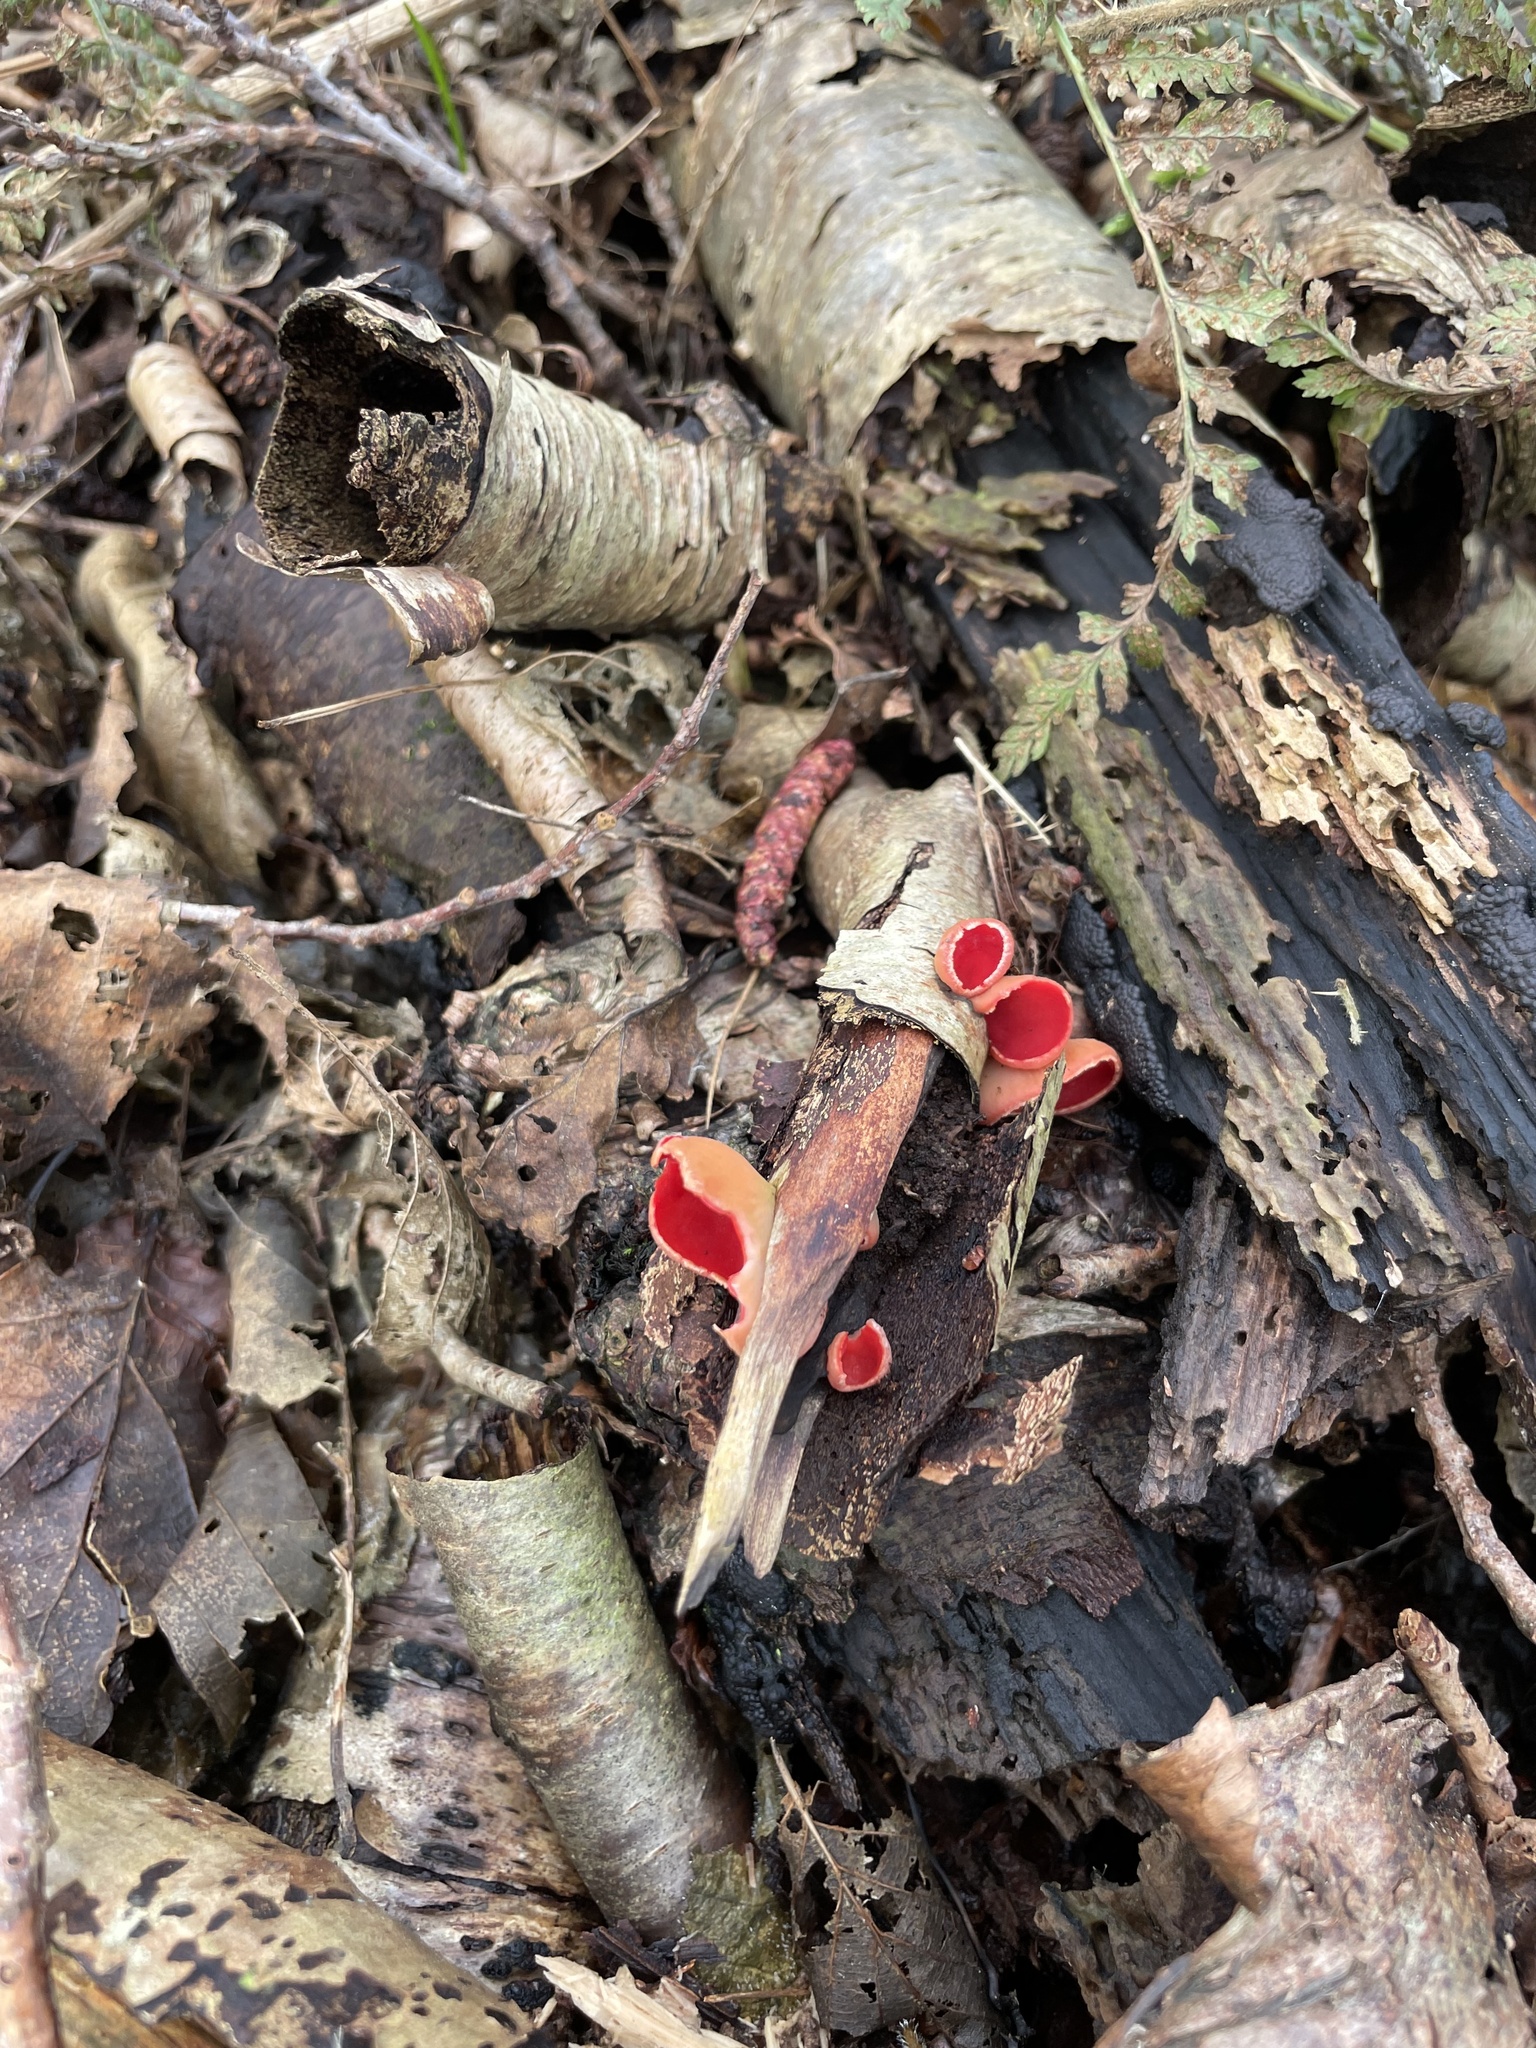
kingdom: Fungi
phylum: Ascomycota
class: Pezizomycetes
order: Pezizales
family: Sarcoscyphaceae
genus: Sarcoscypha
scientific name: Sarcoscypha
